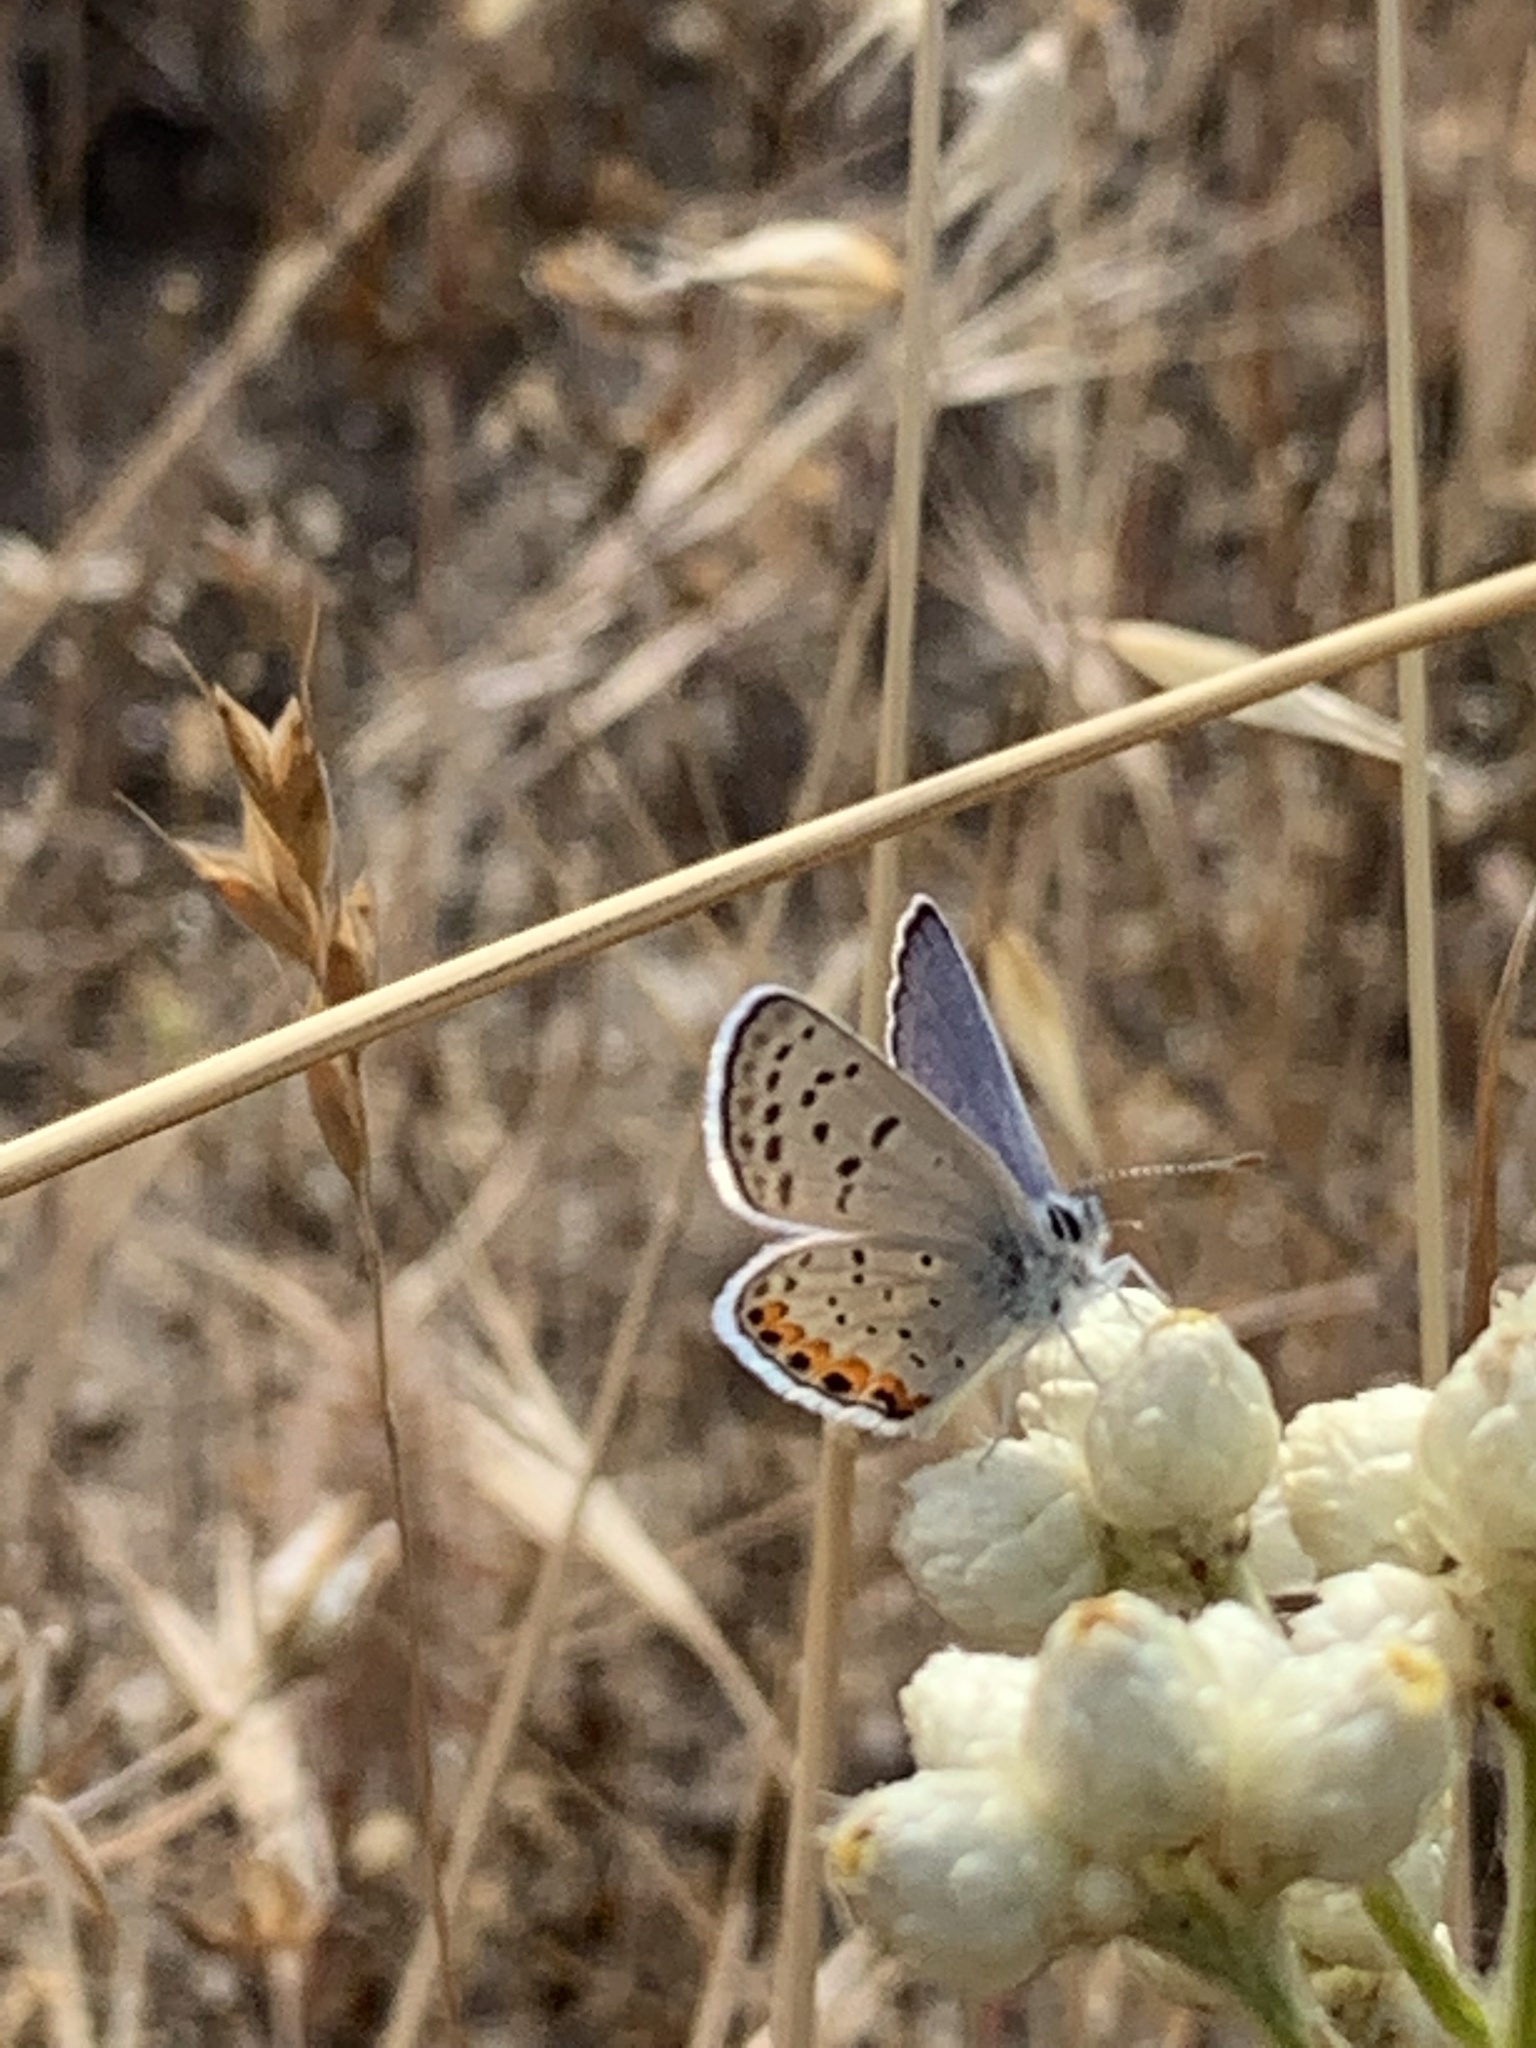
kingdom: Animalia
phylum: Arthropoda
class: Insecta
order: Lepidoptera
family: Lycaenidae
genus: Icaricia
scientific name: Icaricia acmon
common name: Acmon blue
